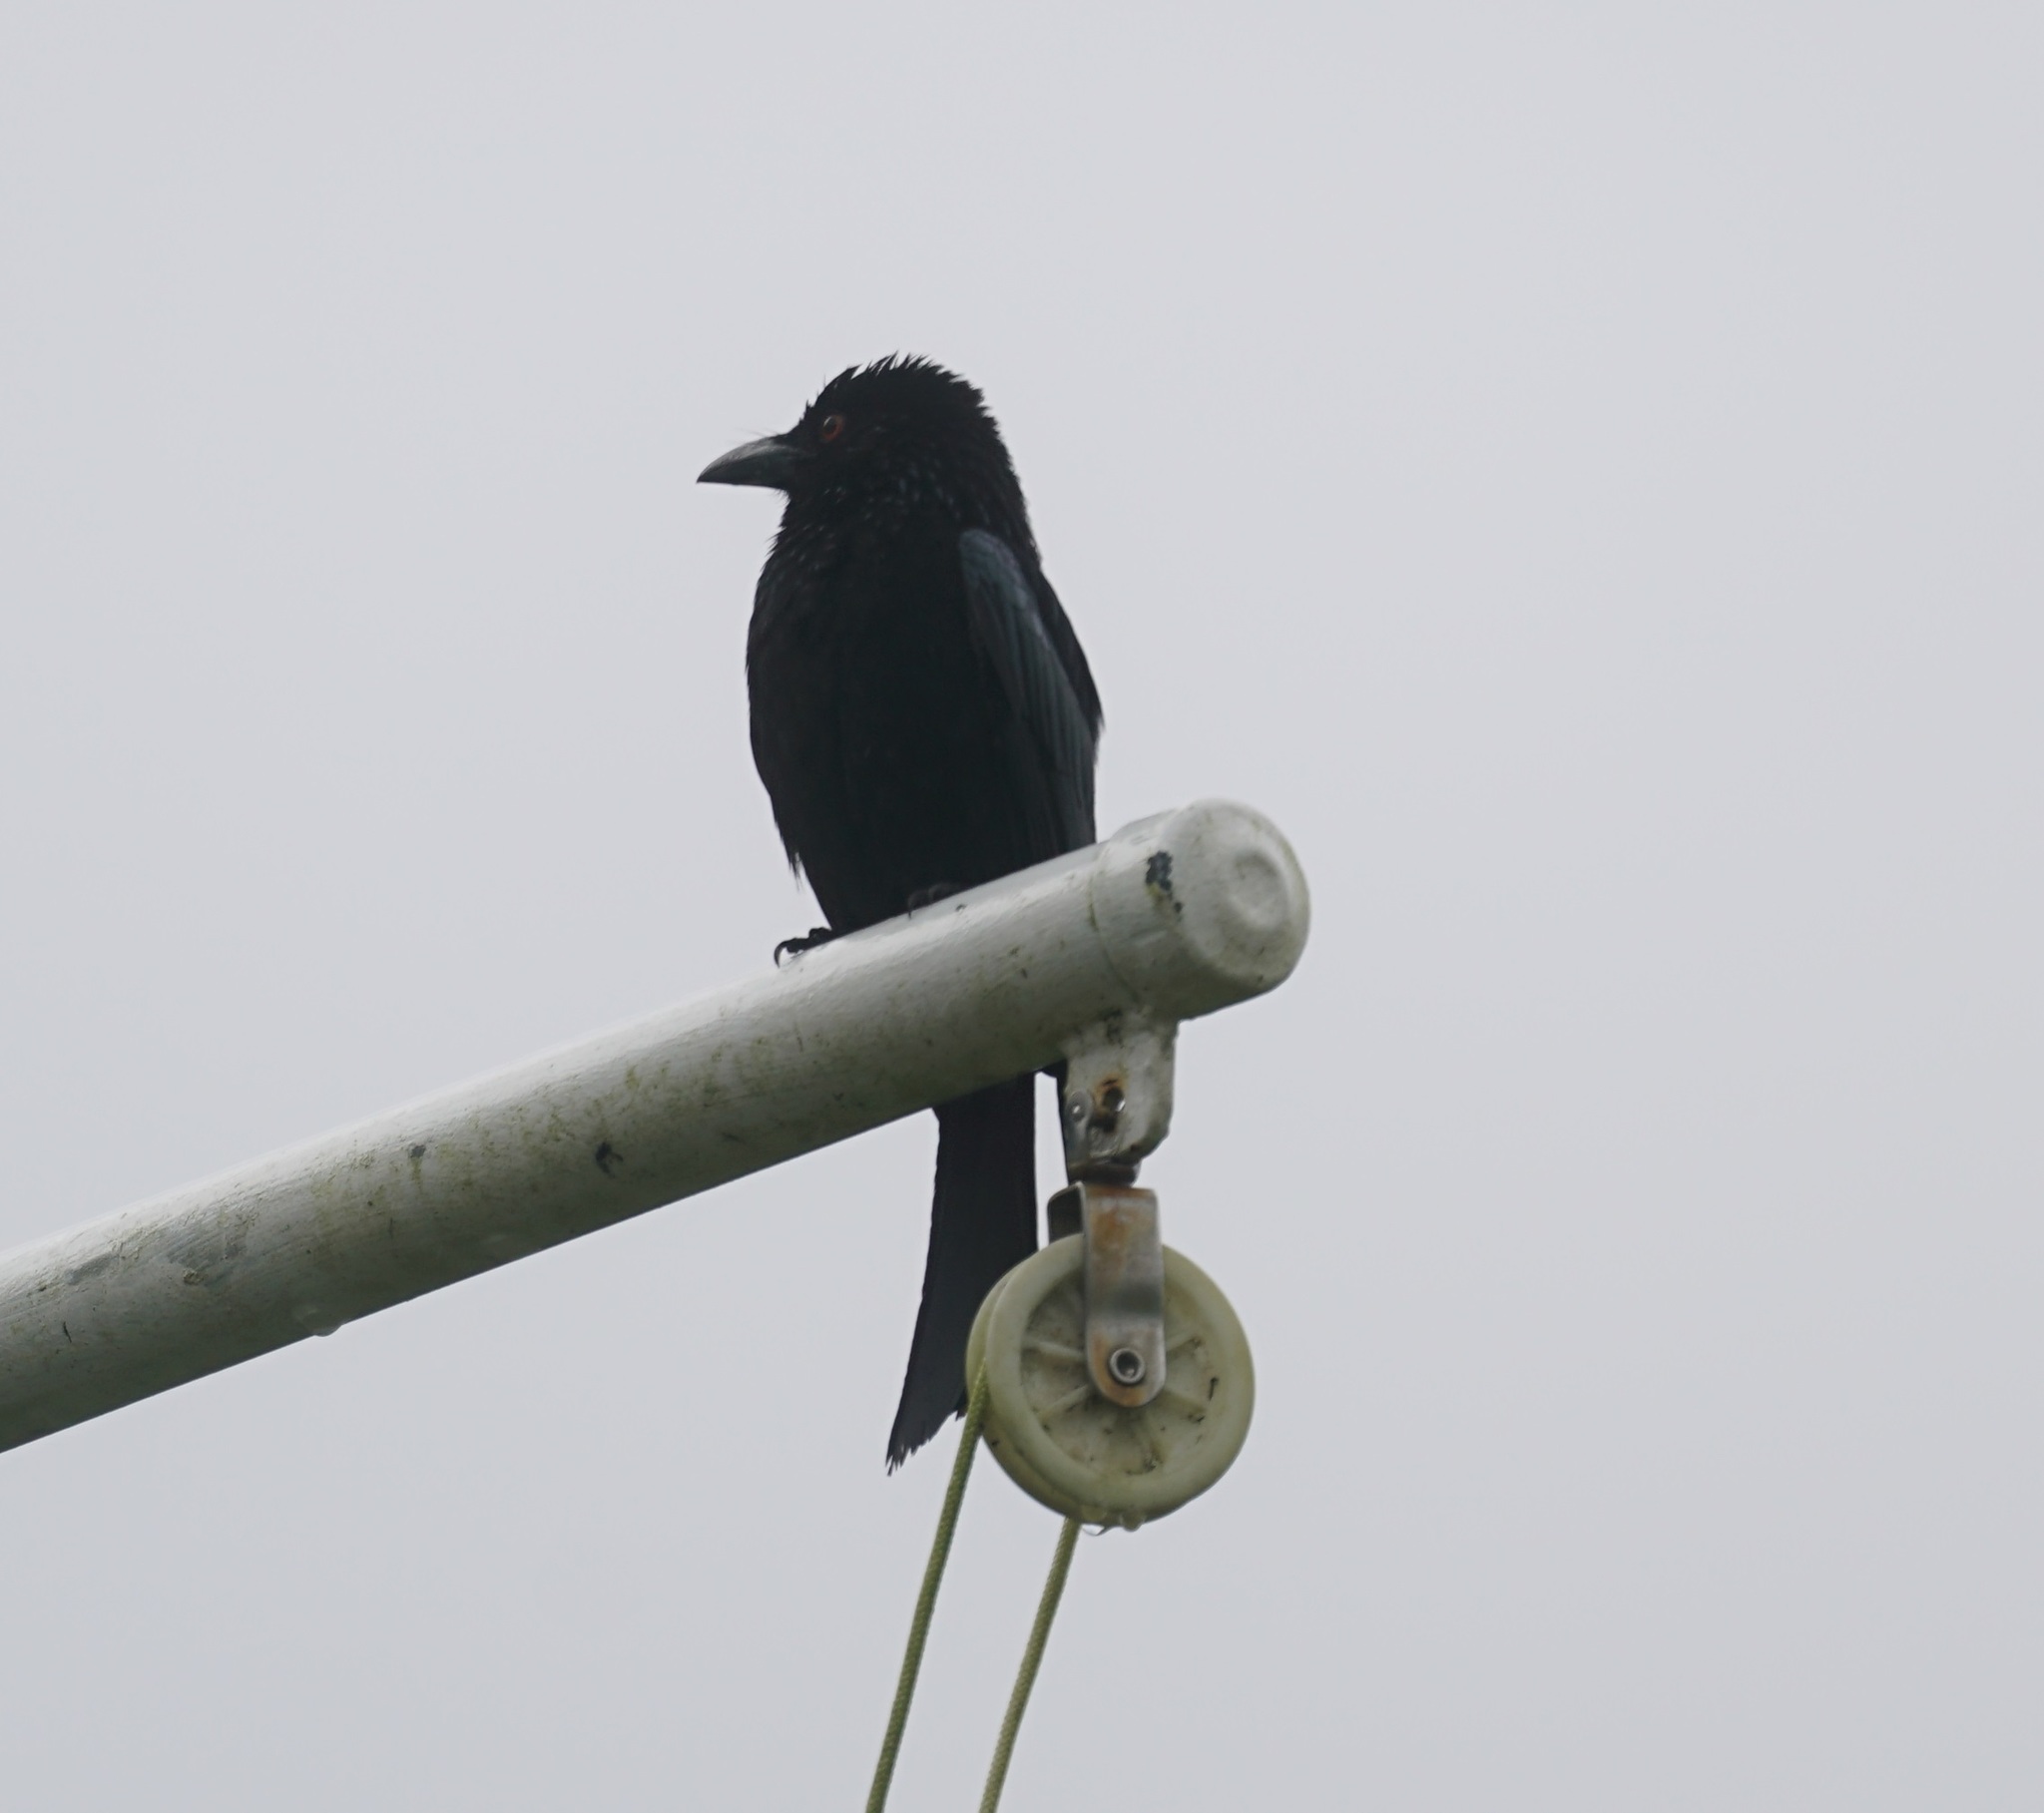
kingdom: Animalia
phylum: Chordata
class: Aves
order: Passeriformes
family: Dicruridae
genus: Dicrurus
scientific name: Dicrurus bracteatus
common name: Spangled drongo
